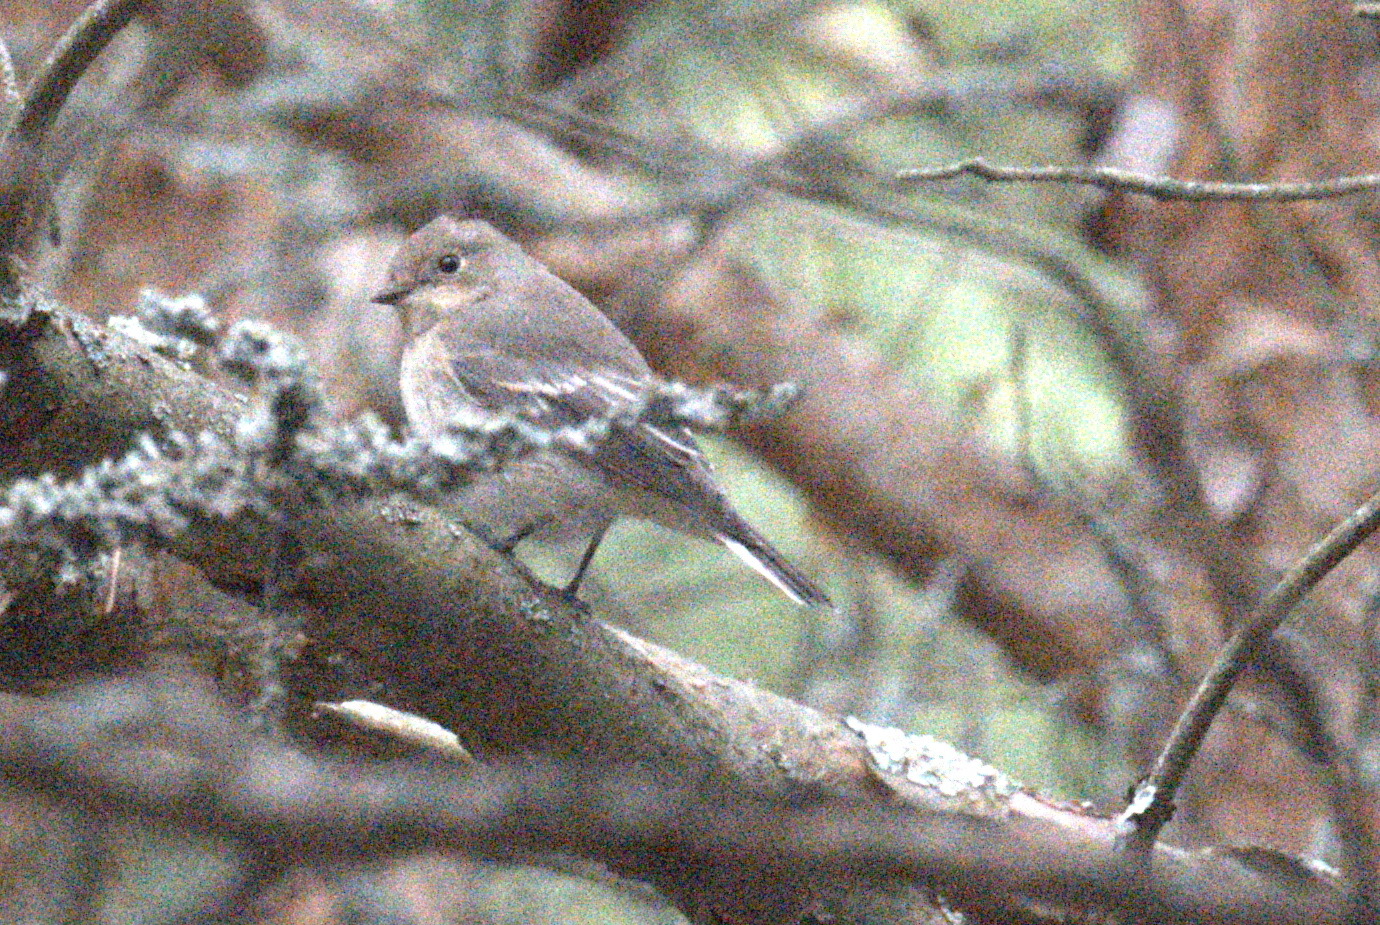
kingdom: Animalia
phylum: Chordata
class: Aves
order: Passeriformes
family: Muscicapidae
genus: Ficedula
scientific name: Ficedula hypoleuca
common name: European pied flycatcher
